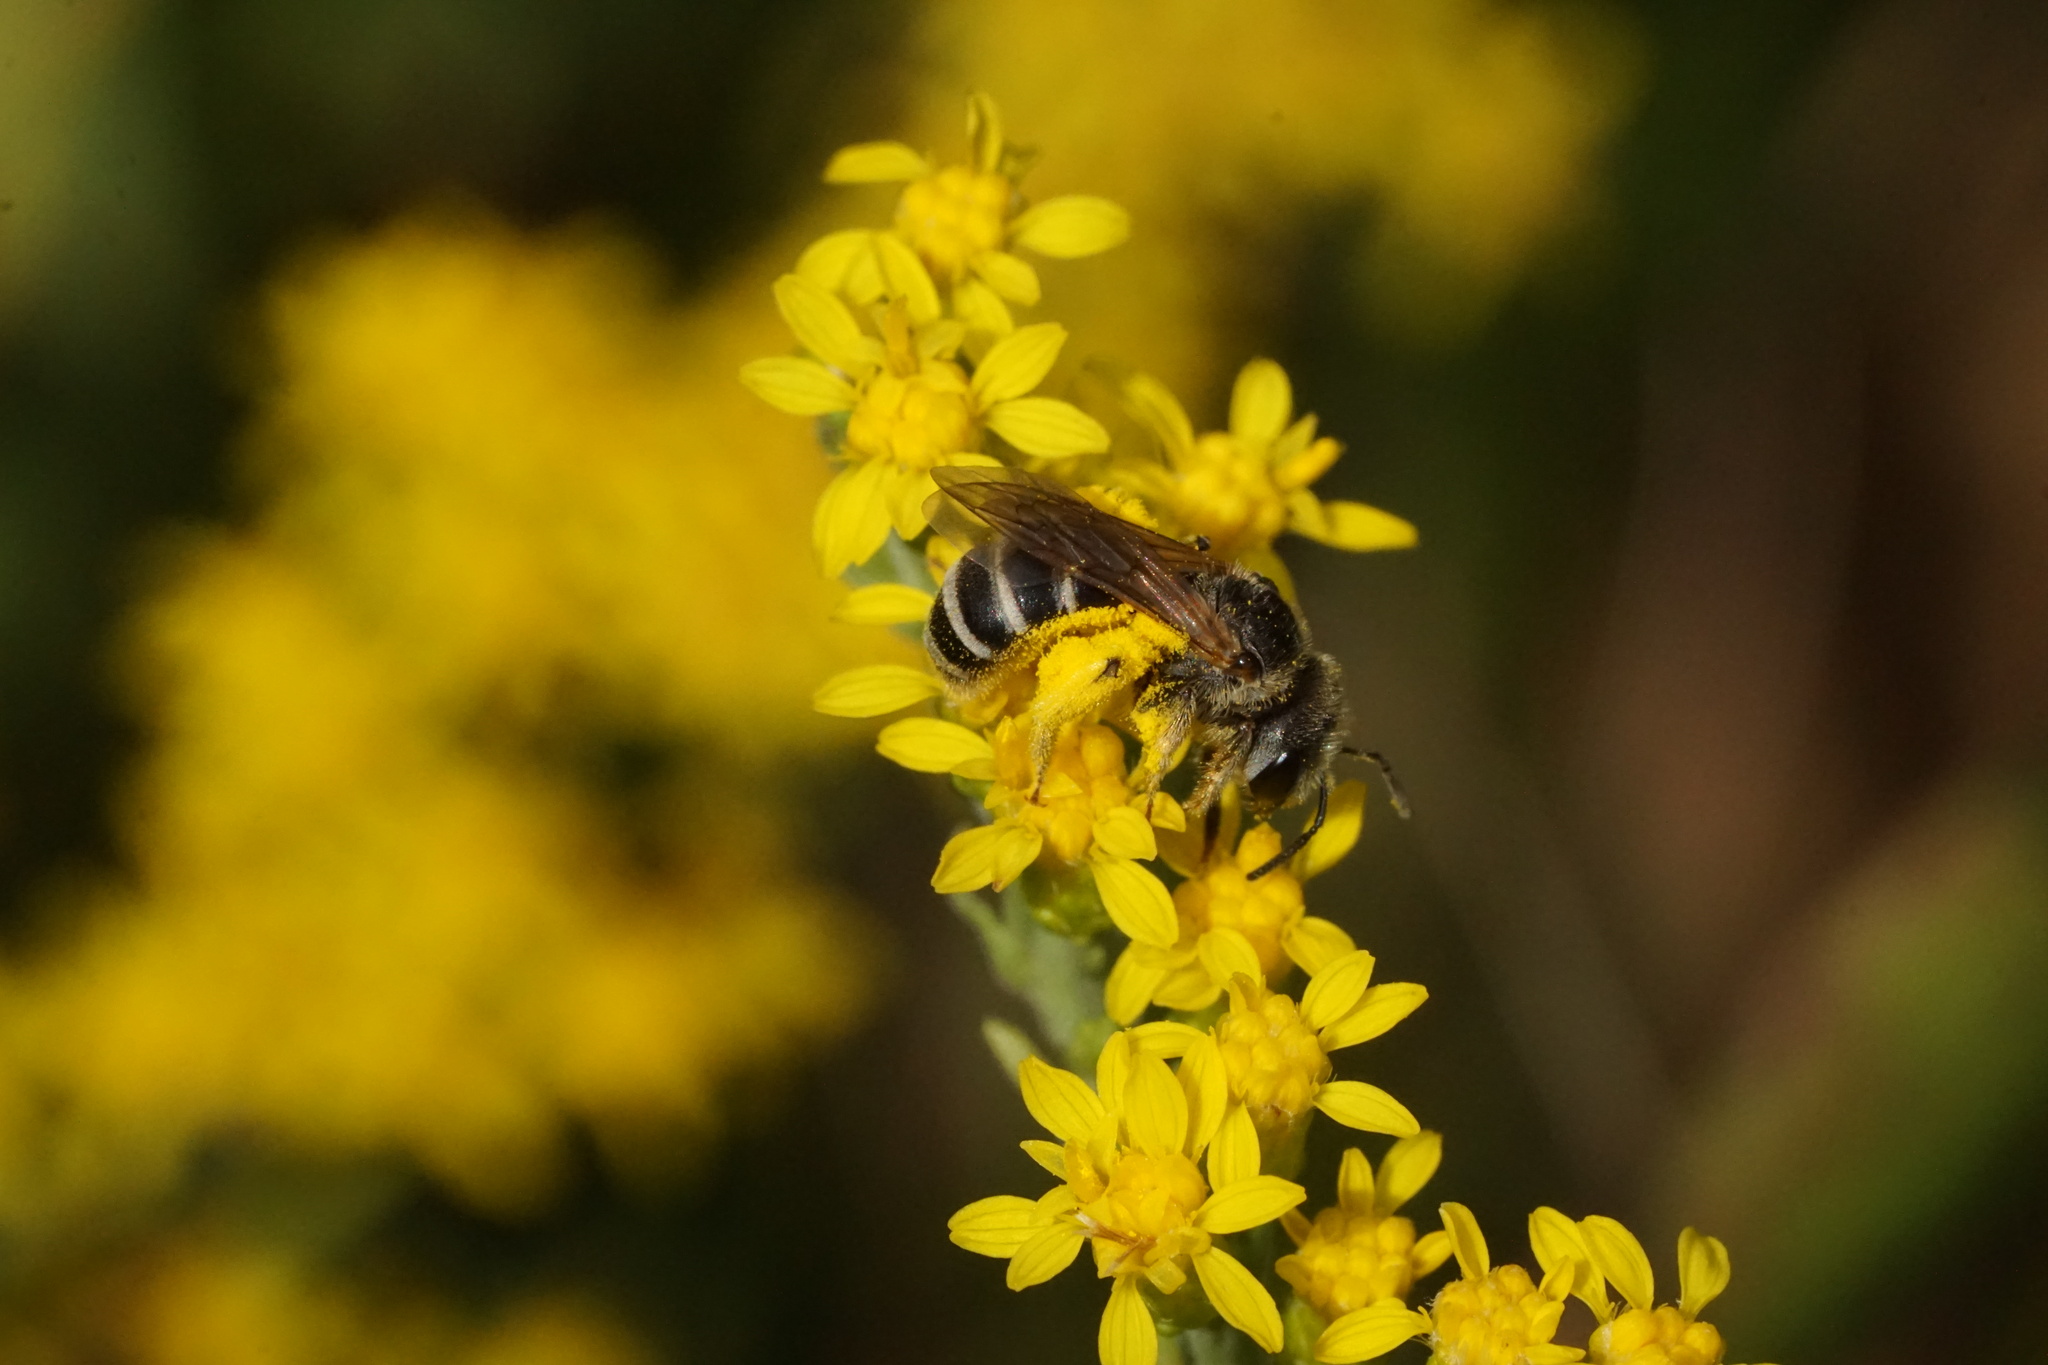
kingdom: Animalia
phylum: Arthropoda
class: Insecta
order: Hymenoptera
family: Halictidae
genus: Halictus
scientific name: Halictus ligatus
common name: Ligated furrow bee
